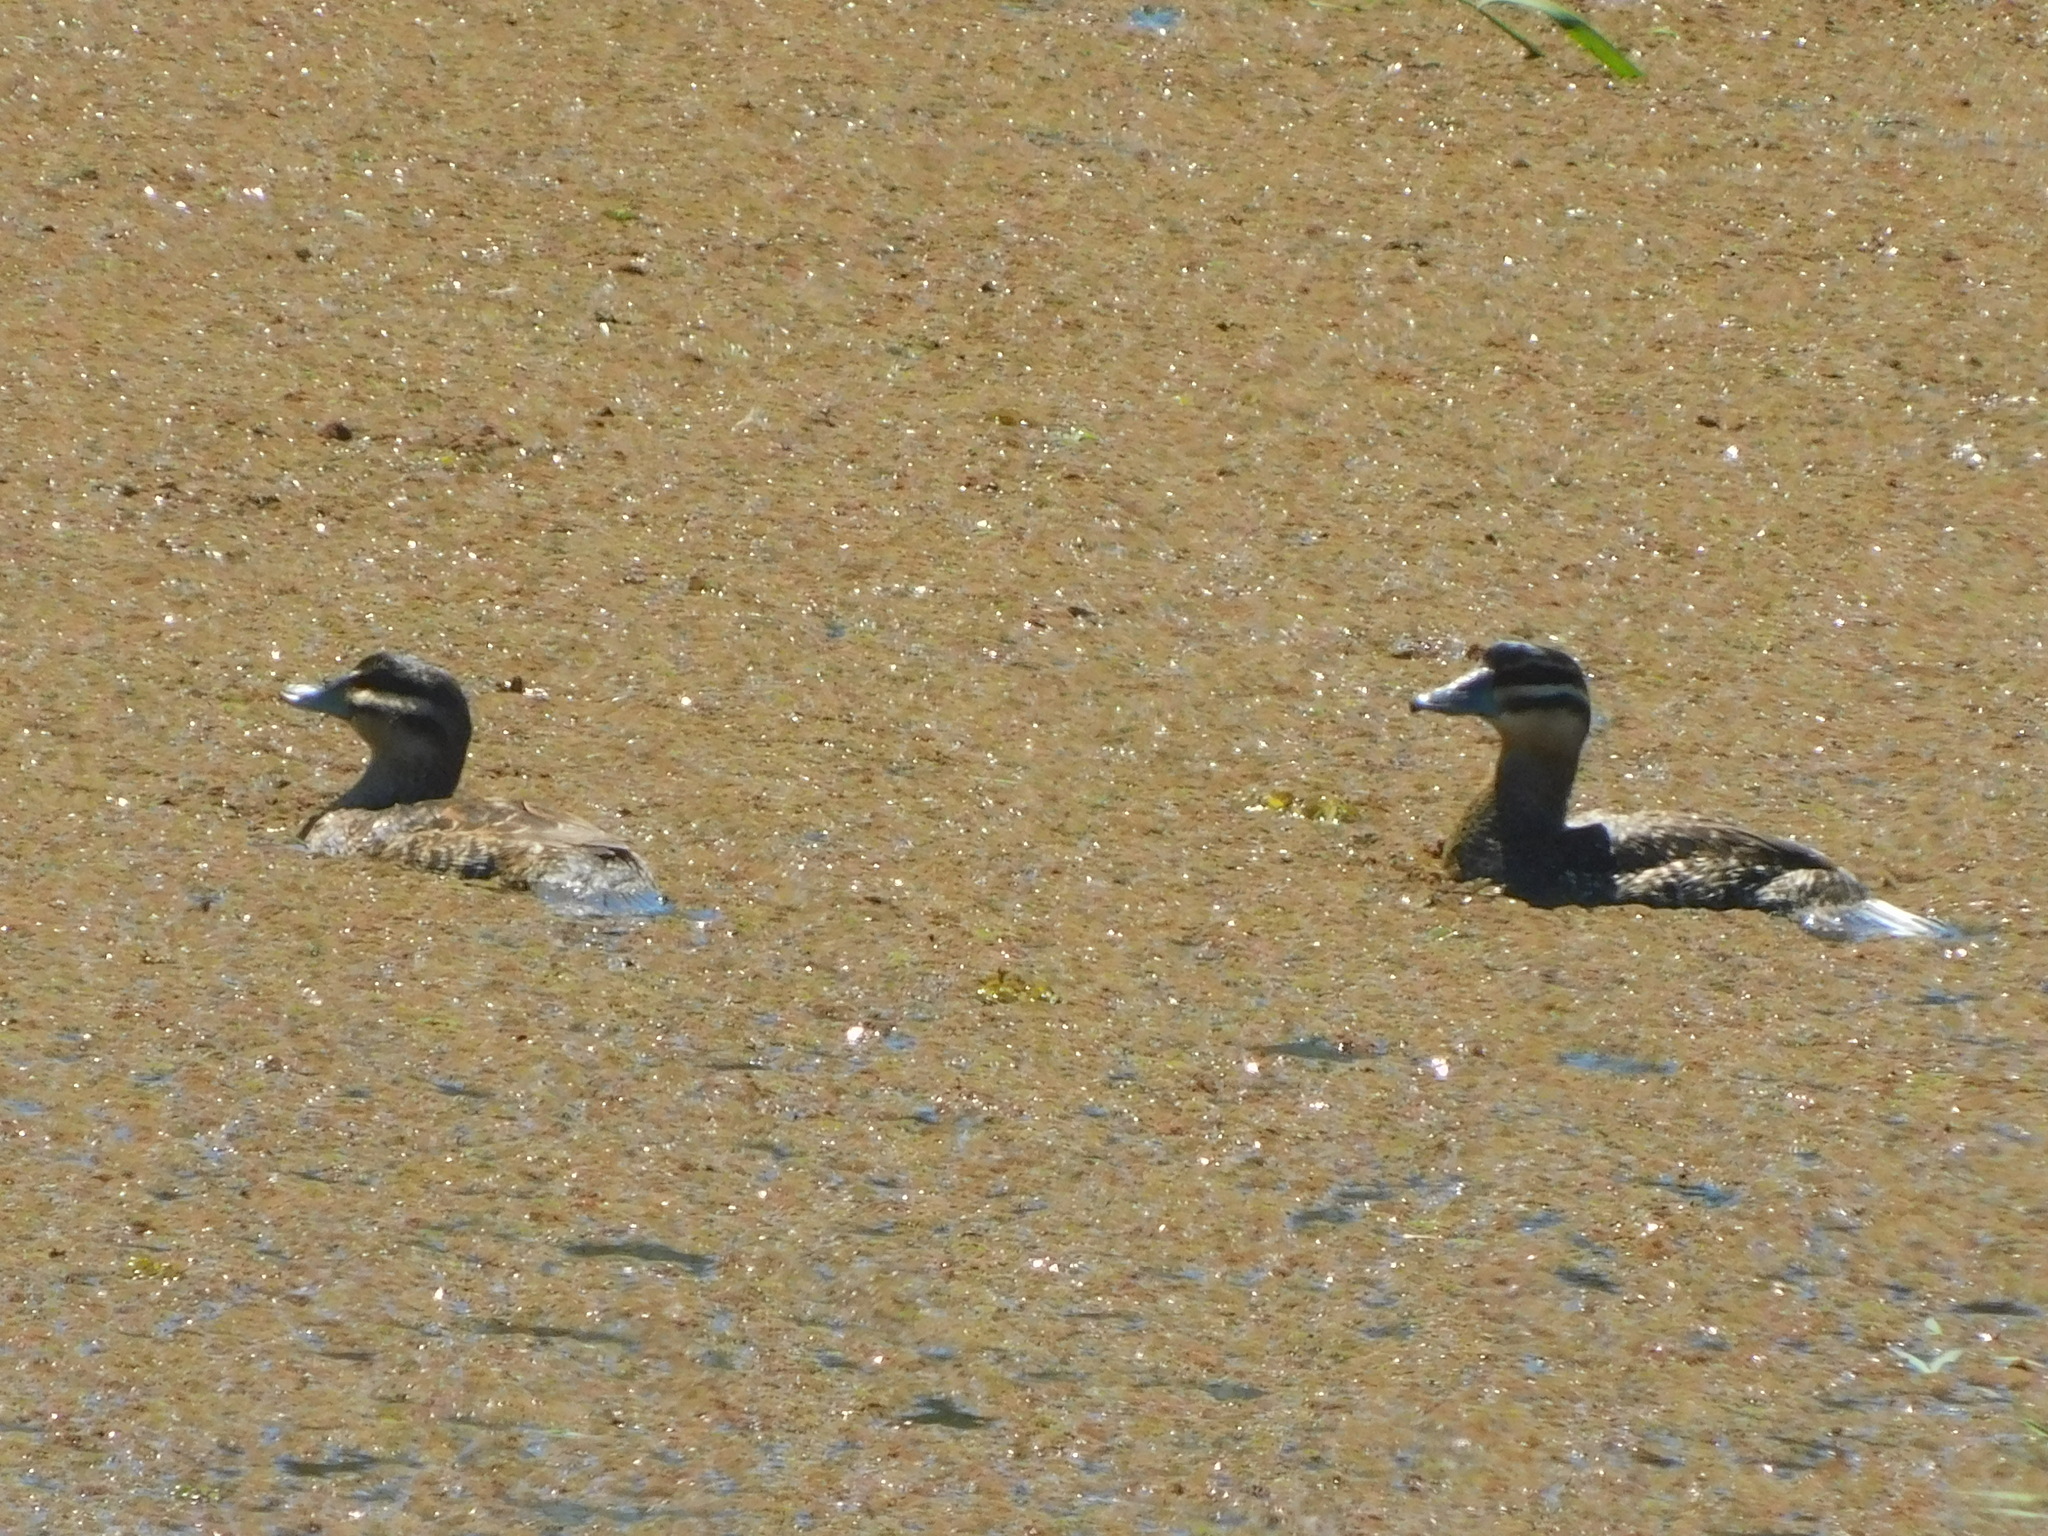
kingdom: Animalia
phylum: Chordata
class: Aves
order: Anseriformes
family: Anatidae
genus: Nomonyx
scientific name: Nomonyx dominicus
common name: Masked duck
